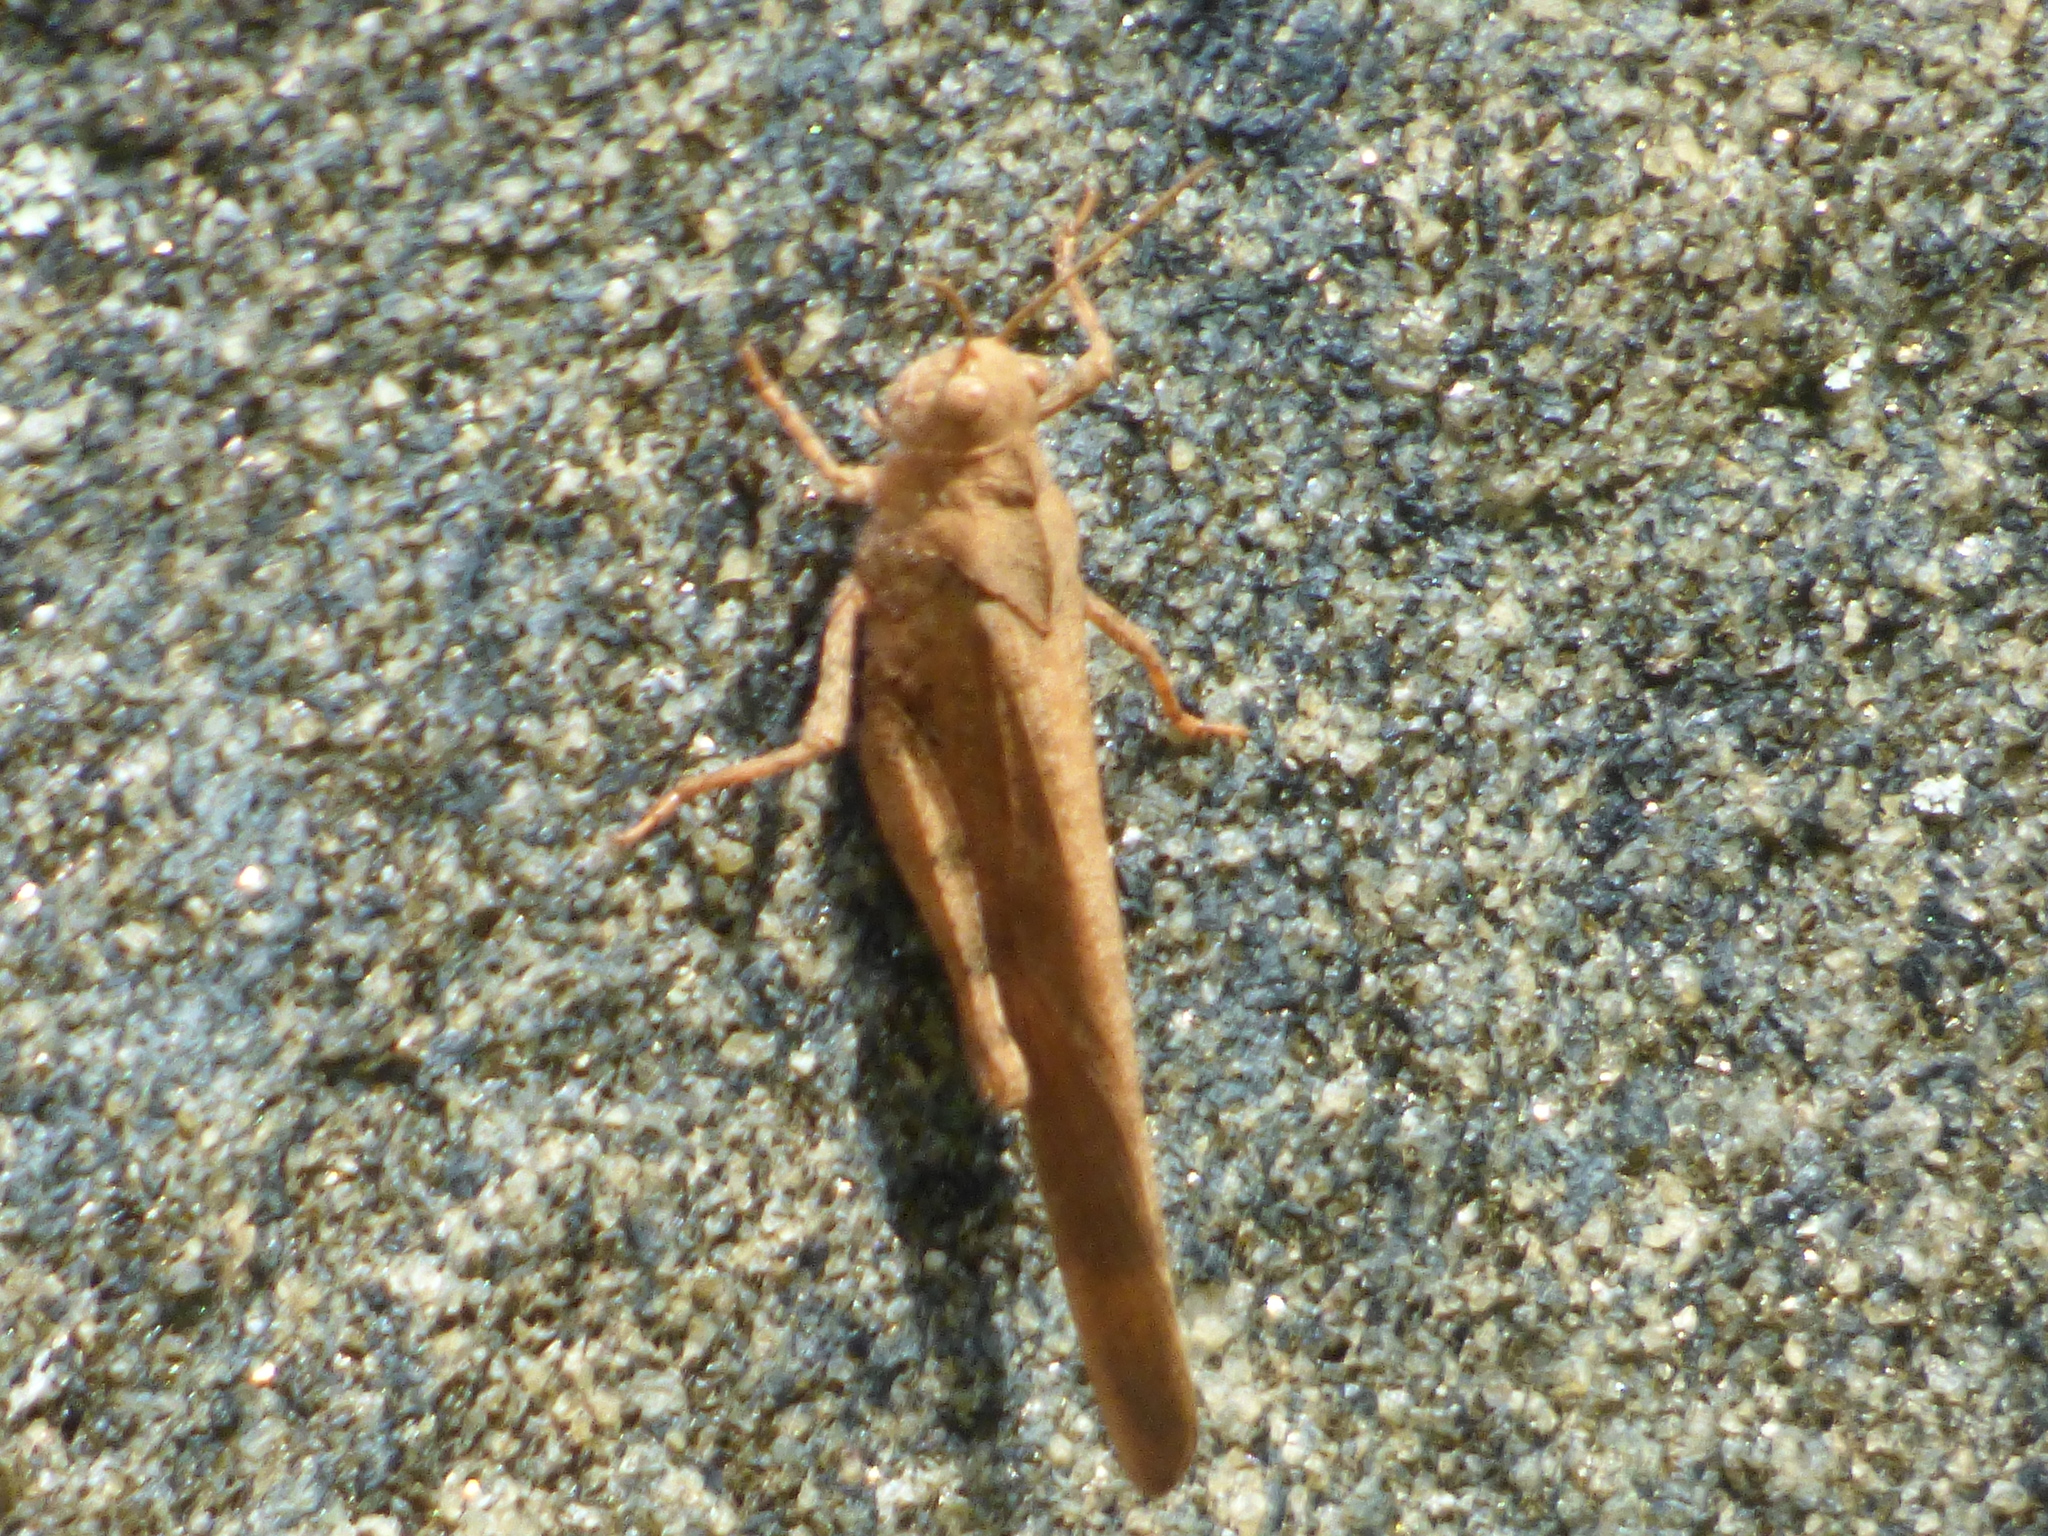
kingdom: Animalia
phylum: Arthropoda
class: Insecta
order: Orthoptera
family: Acrididae
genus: Dissosteira
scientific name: Dissosteira carolina
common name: Carolina grasshopper
